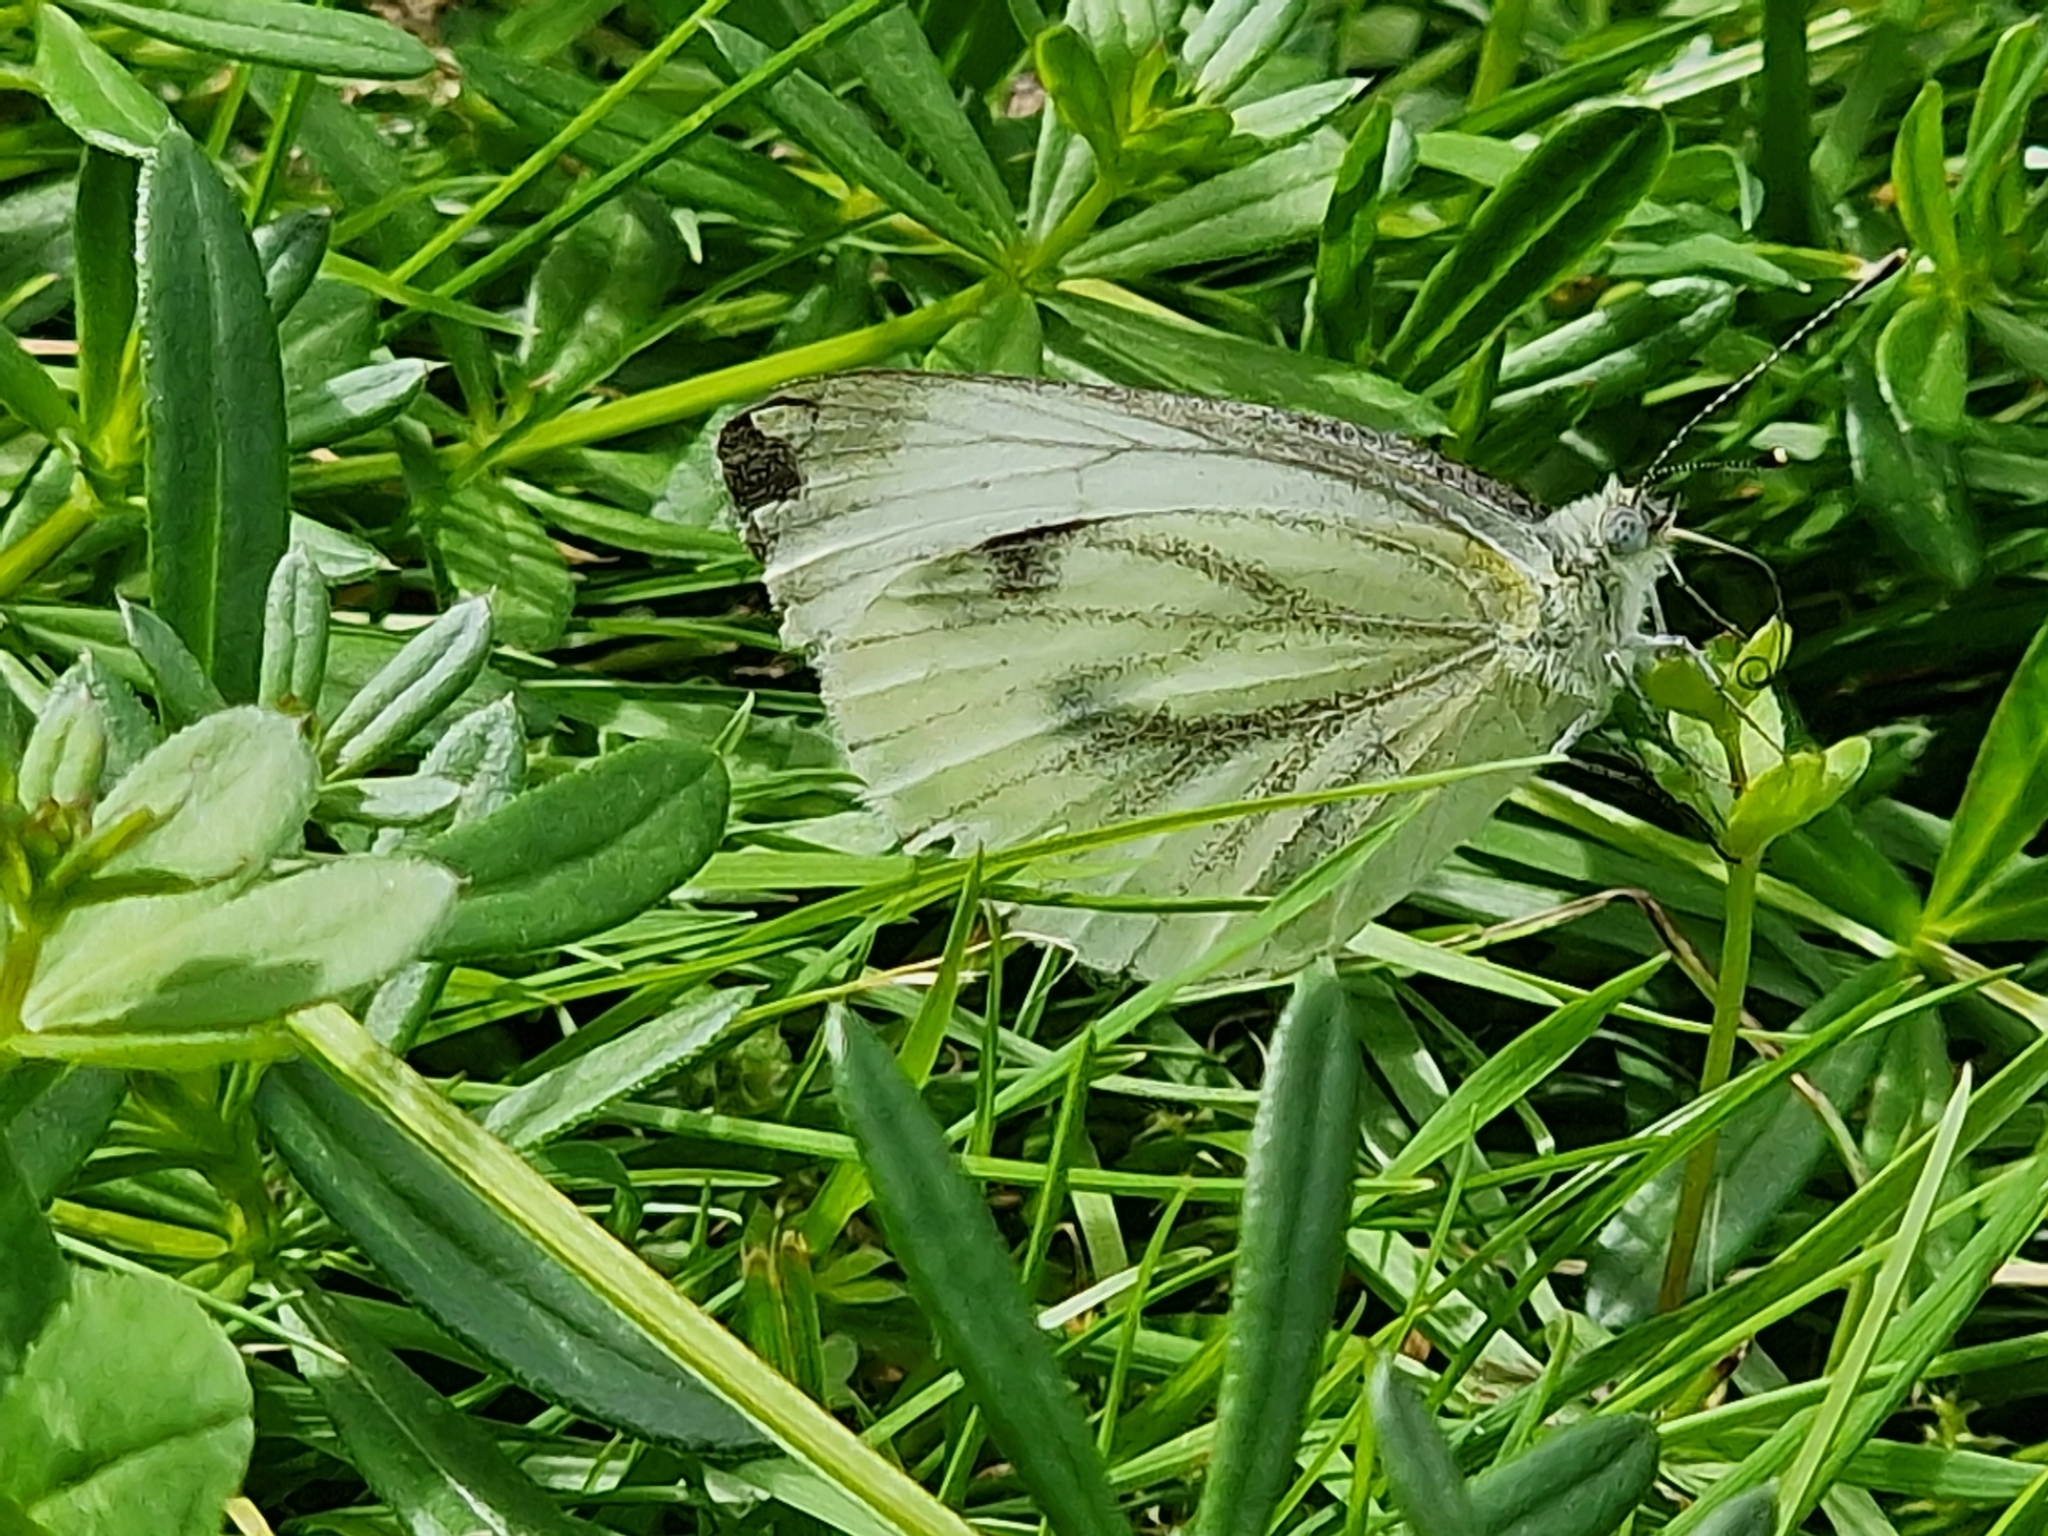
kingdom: Animalia
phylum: Arthropoda
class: Insecta
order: Lepidoptera
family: Pieridae
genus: Pieris
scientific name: Pieris napi
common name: Green-veined white
